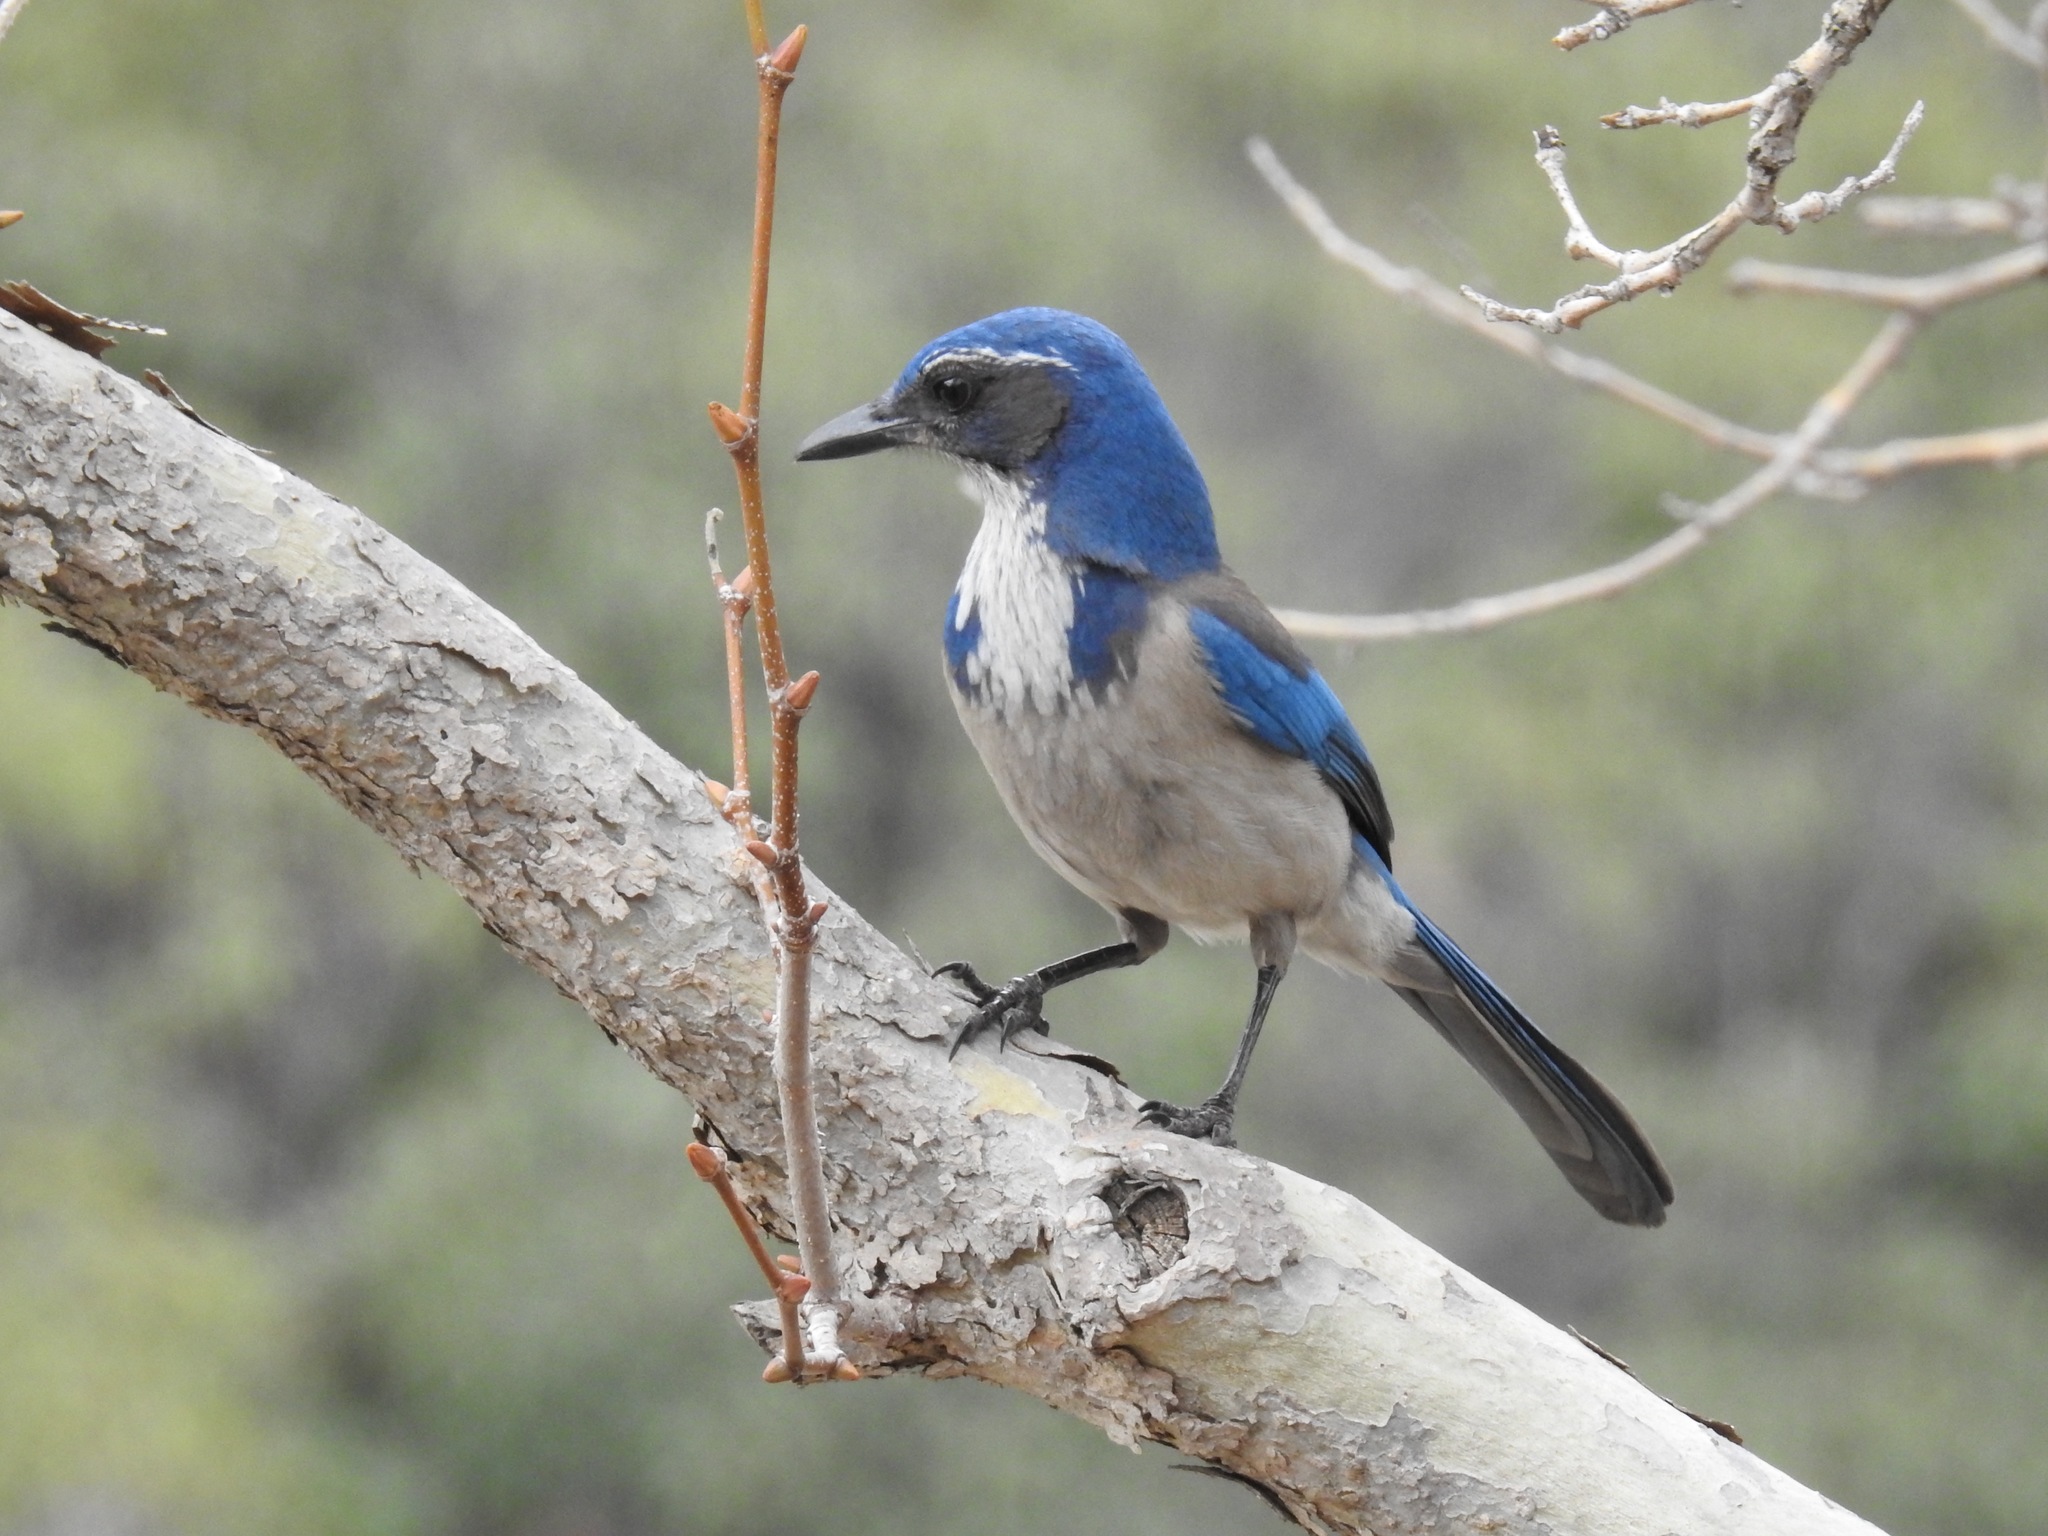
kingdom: Animalia
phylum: Chordata
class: Aves
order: Passeriformes
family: Corvidae
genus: Aphelocoma
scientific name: Aphelocoma californica
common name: California scrub-jay
